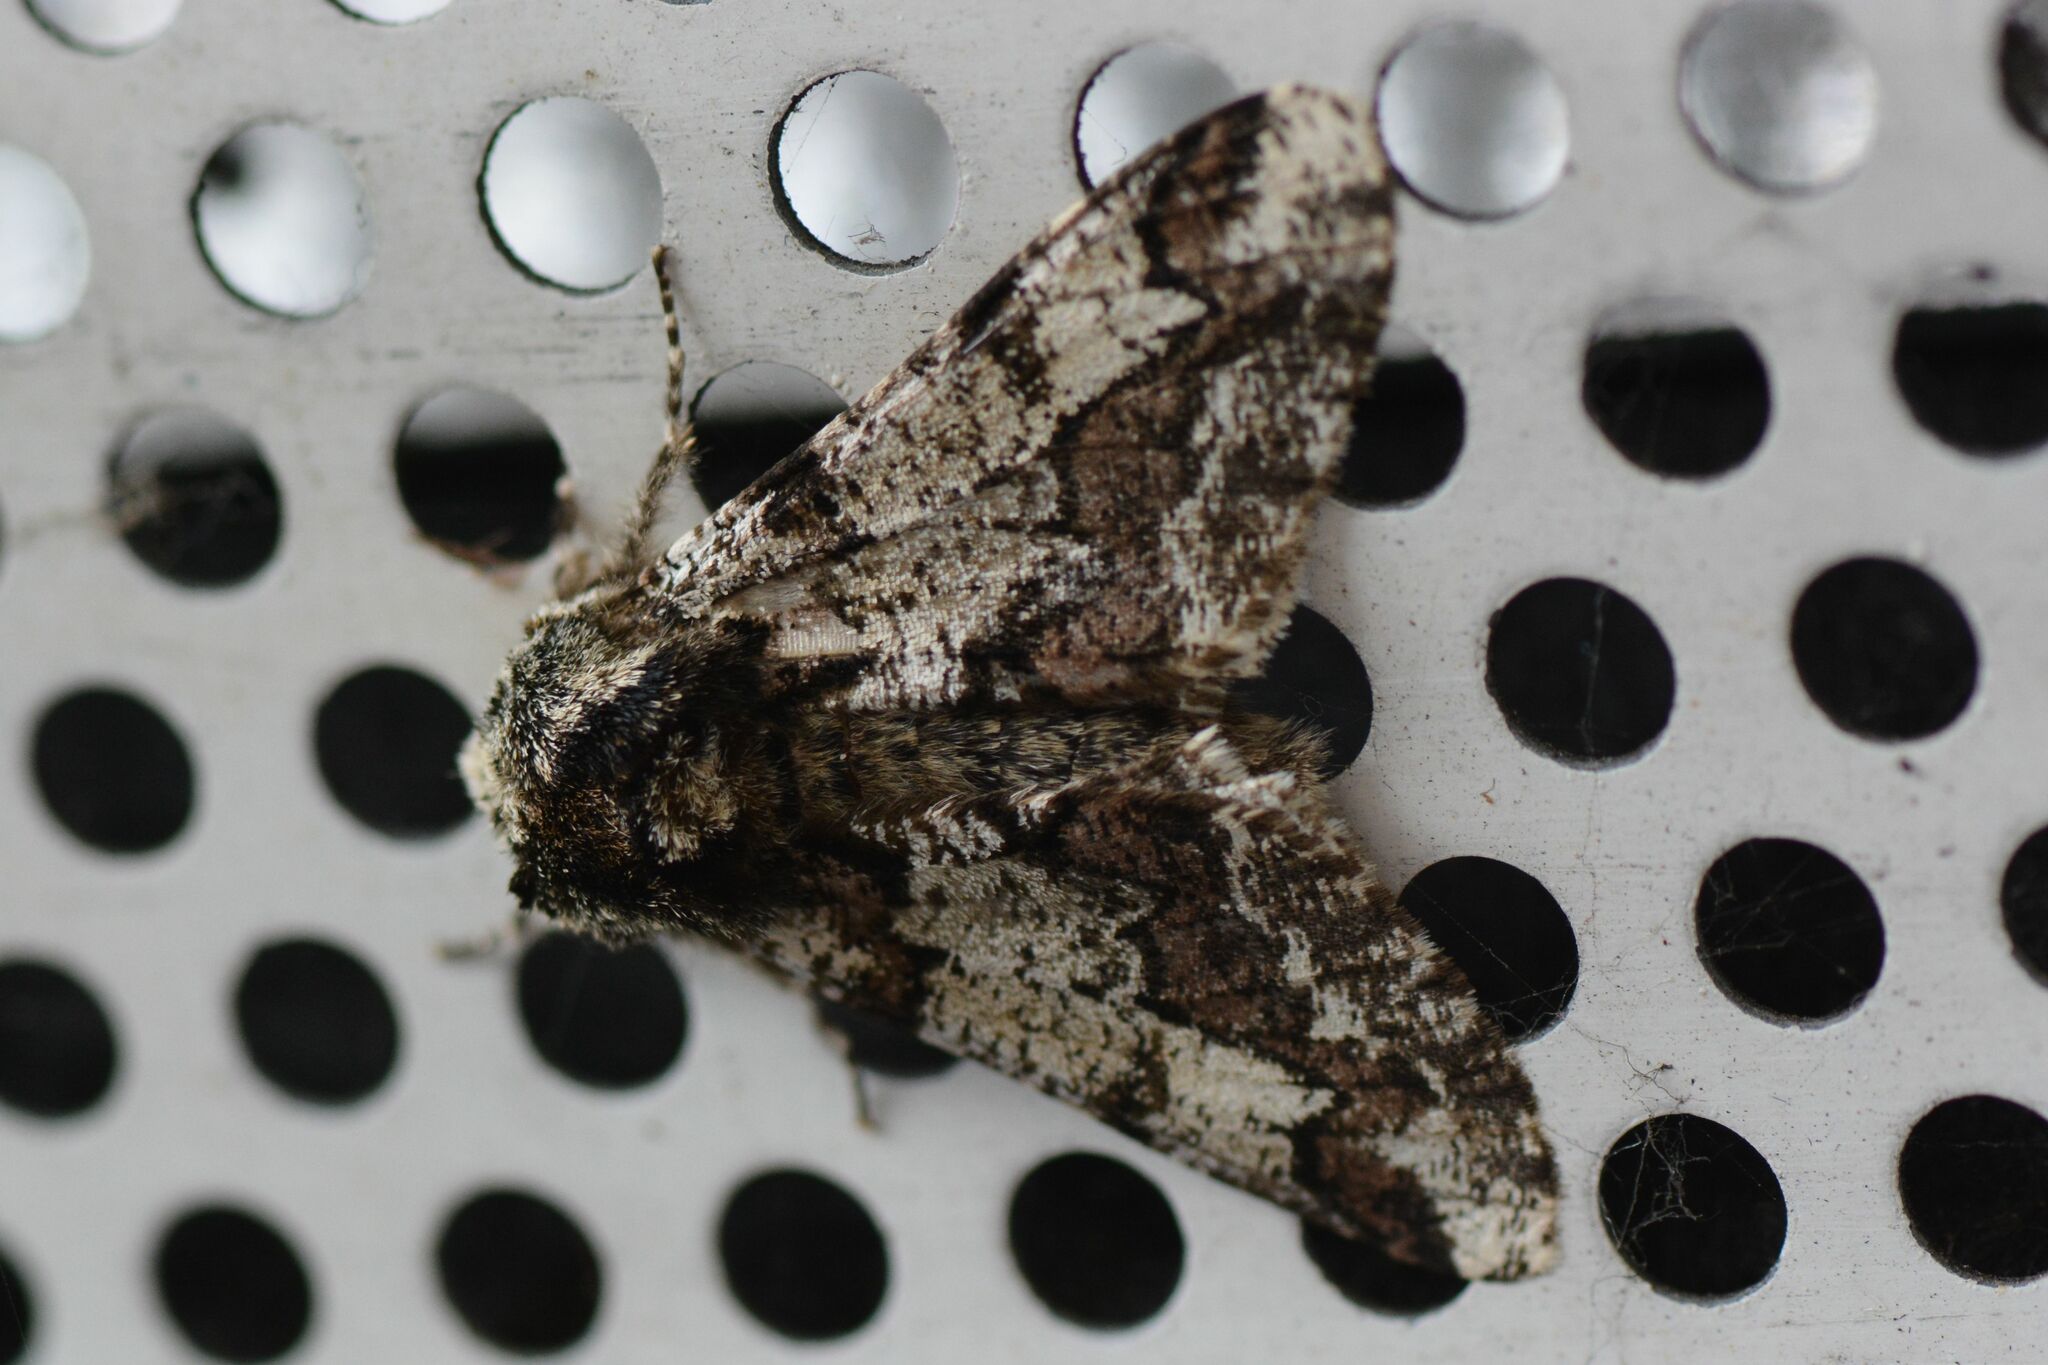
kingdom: Animalia
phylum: Arthropoda
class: Insecta
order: Lepidoptera
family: Geometridae
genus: Biston
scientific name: Biston strataria
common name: Oak beauty
